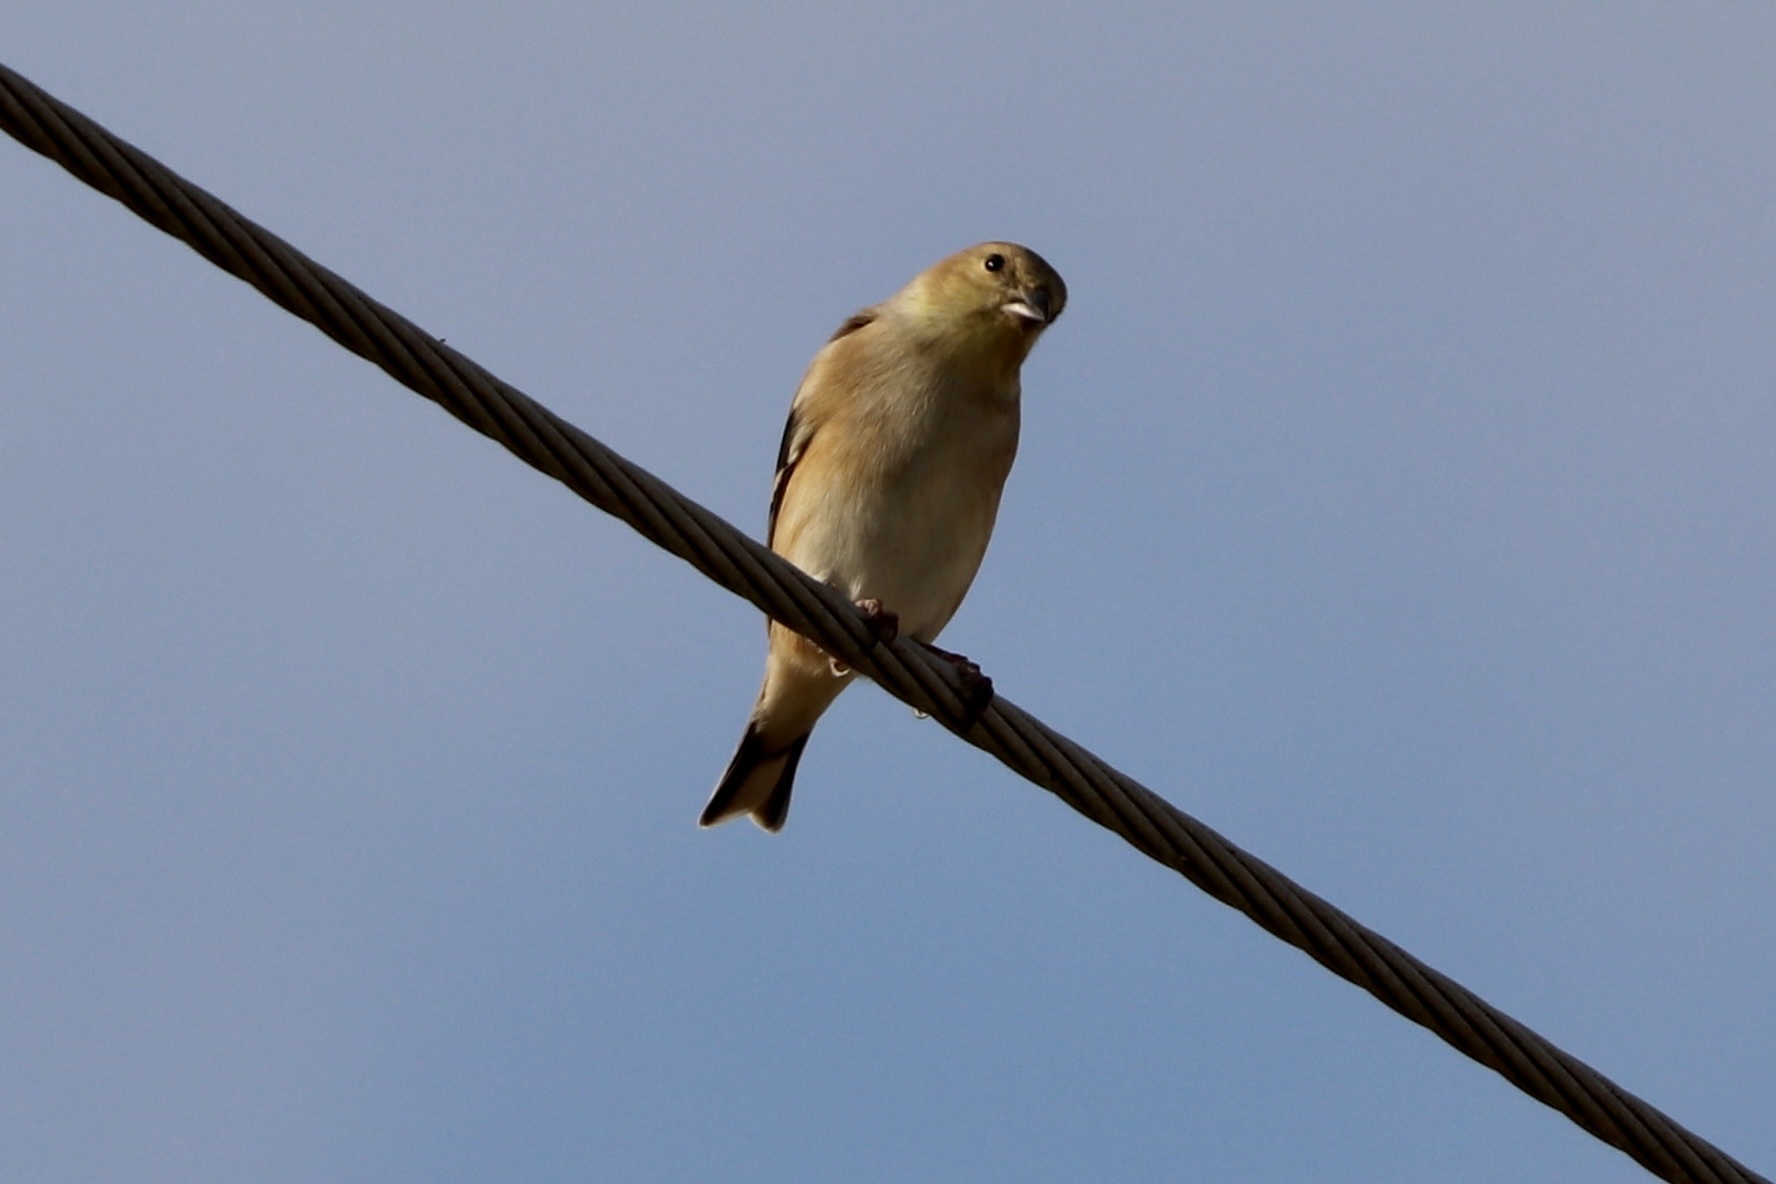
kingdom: Animalia
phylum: Chordata
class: Aves
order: Passeriformes
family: Fringillidae
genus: Spinus
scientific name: Spinus tristis
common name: American goldfinch
